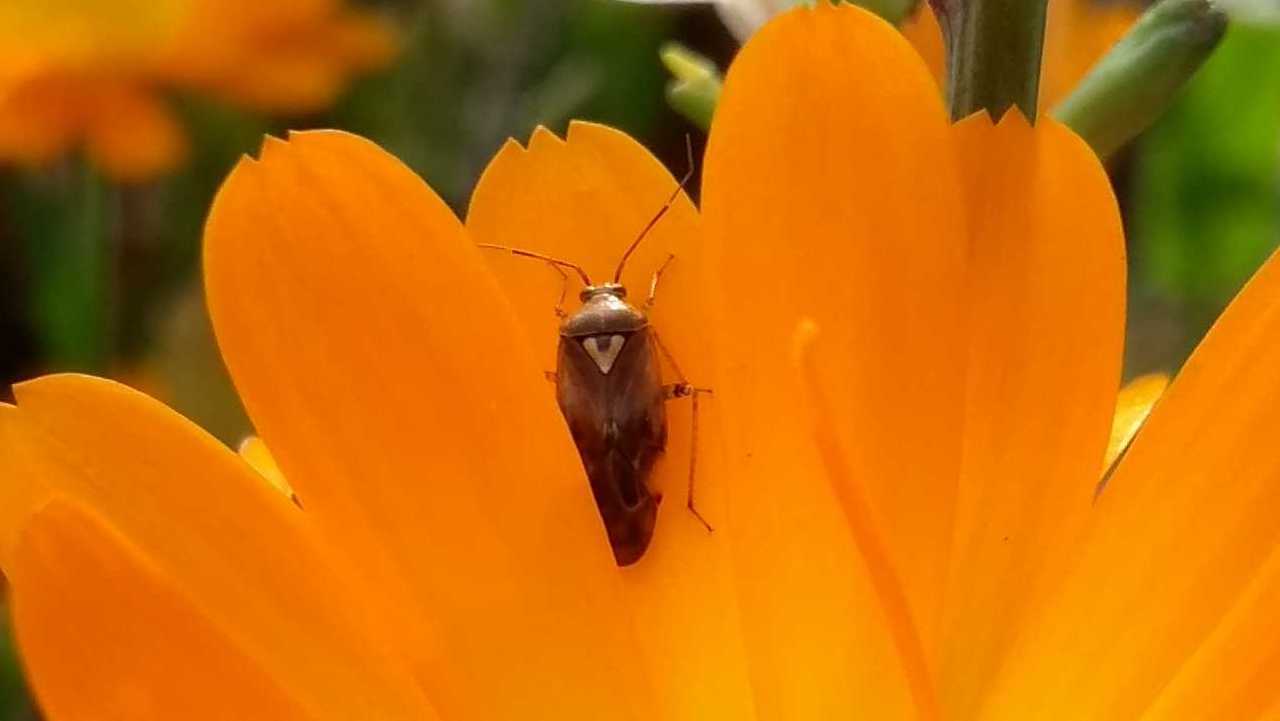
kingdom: Animalia
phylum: Arthropoda
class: Insecta
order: Hemiptera
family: Miridae
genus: Lygus
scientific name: Lygus pratensis
